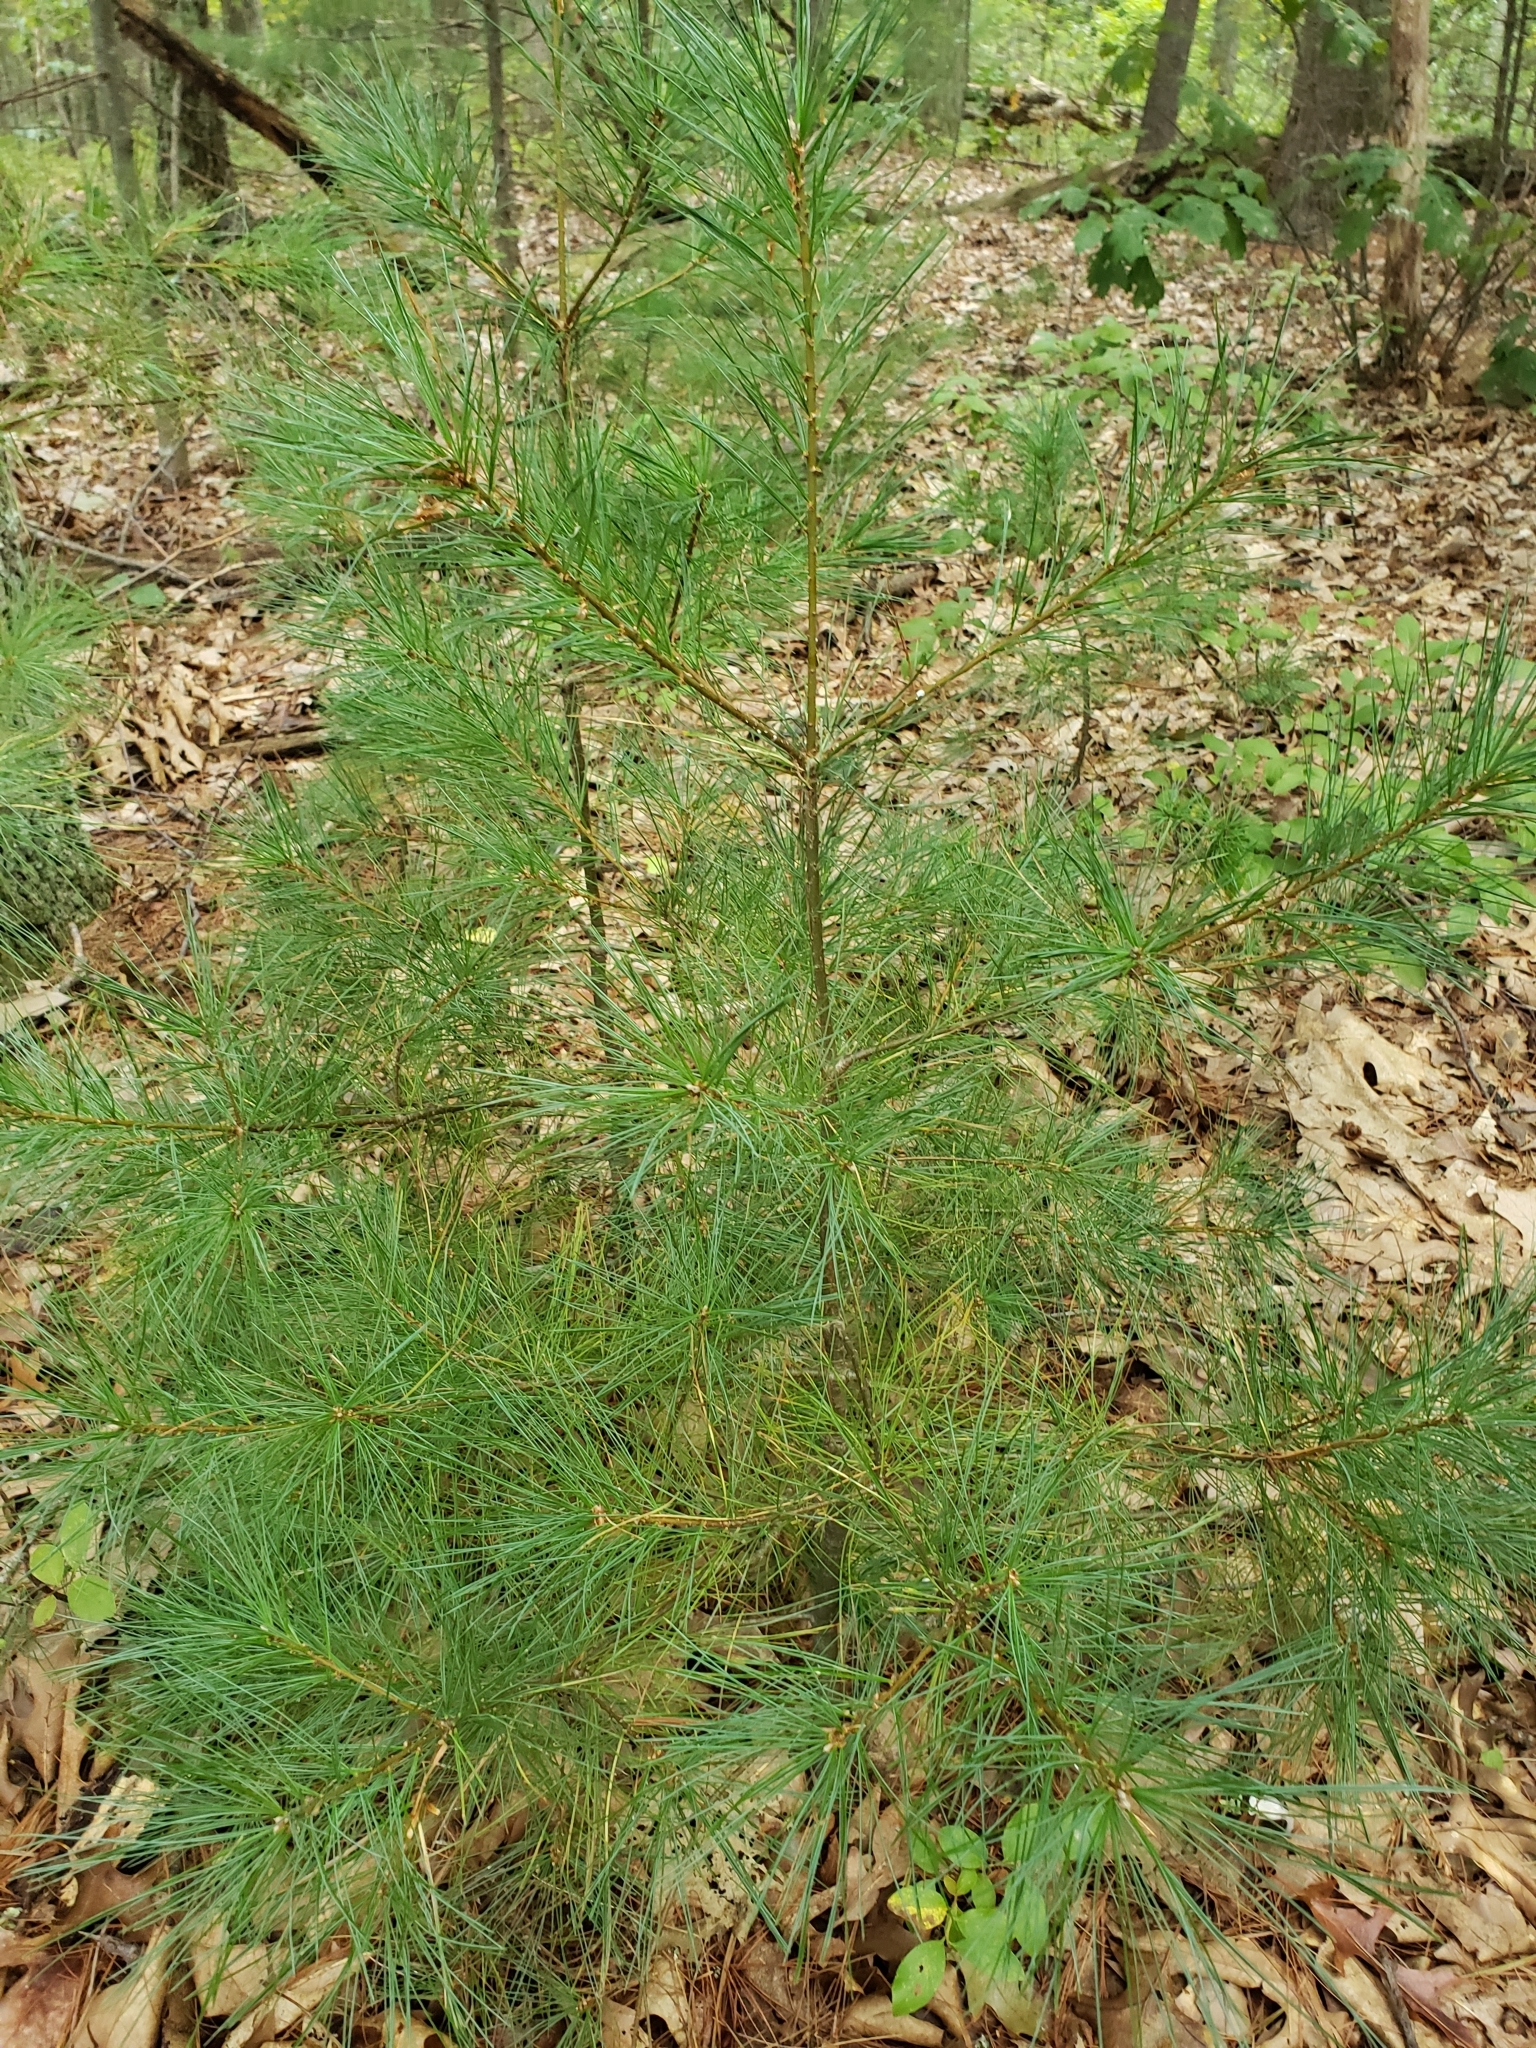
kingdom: Plantae
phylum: Tracheophyta
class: Pinopsida
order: Pinales
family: Pinaceae
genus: Pinus
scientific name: Pinus strobus
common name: Weymouth pine
